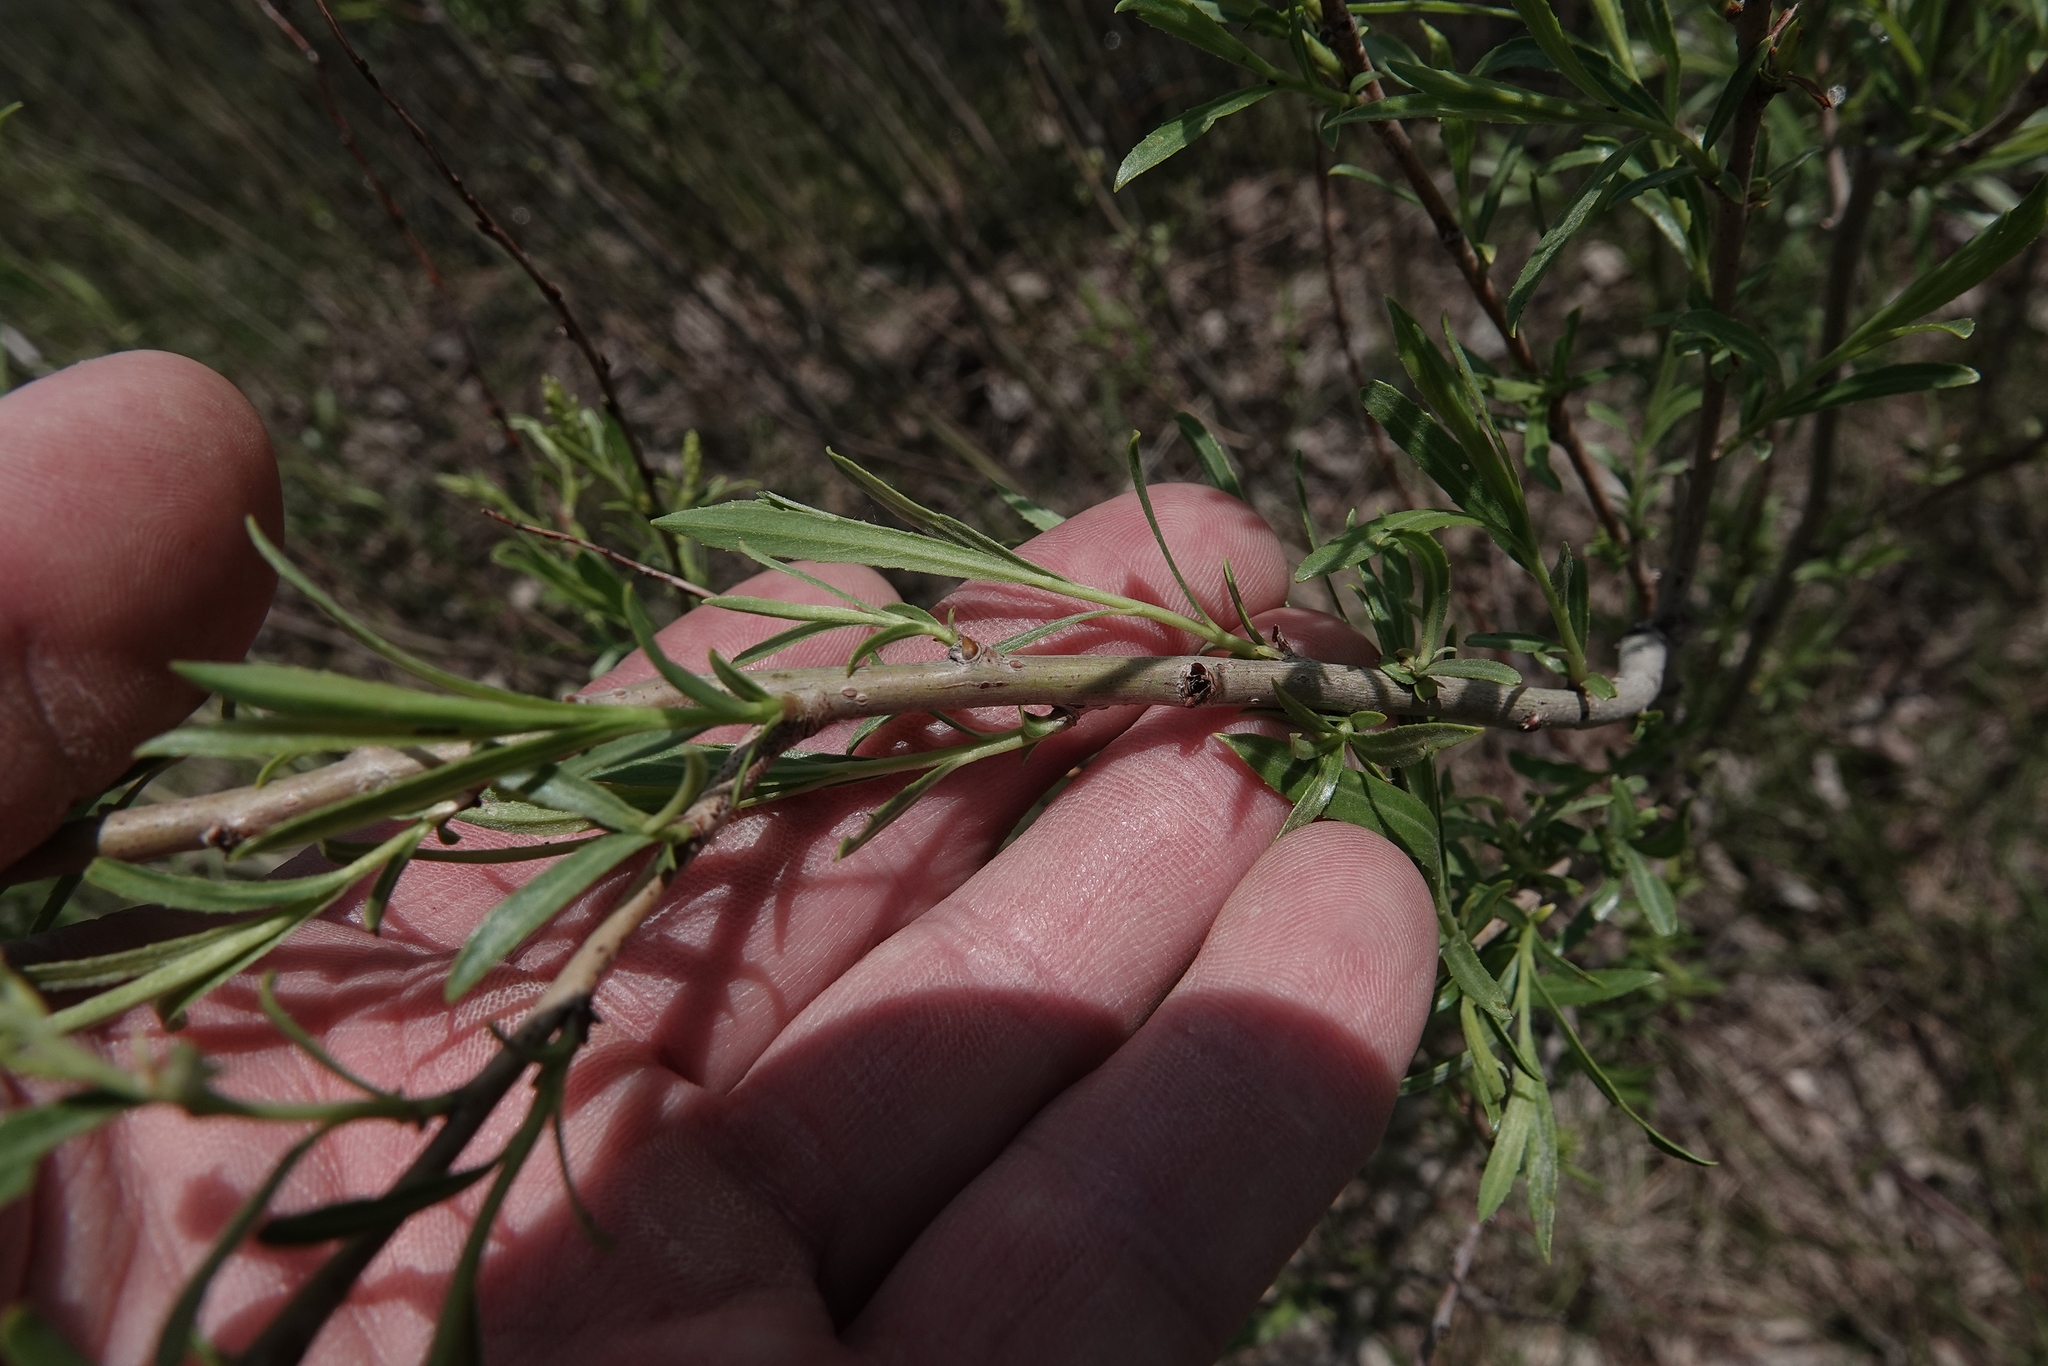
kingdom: Plantae
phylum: Tracheophyta
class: Magnoliopsida
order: Malpighiales
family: Salicaceae
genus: Salix
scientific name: Salix interior
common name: Sandbar willow
